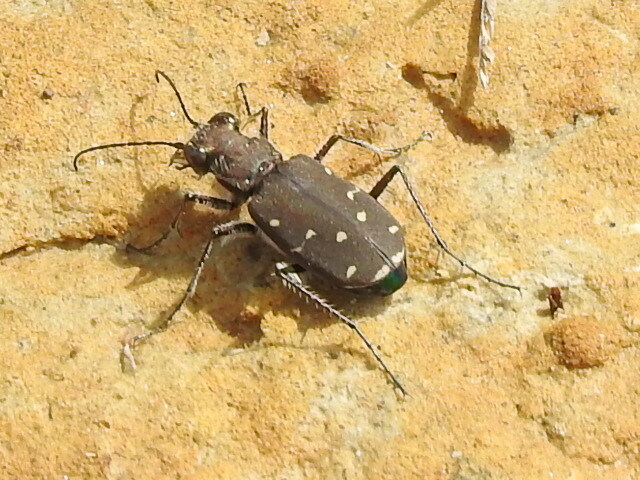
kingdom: Animalia
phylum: Arthropoda
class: Insecta
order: Coleoptera
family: Carabidae
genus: Cicindela
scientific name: Cicindela duodecimguttata
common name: Twelve-spotted tiger beetle
